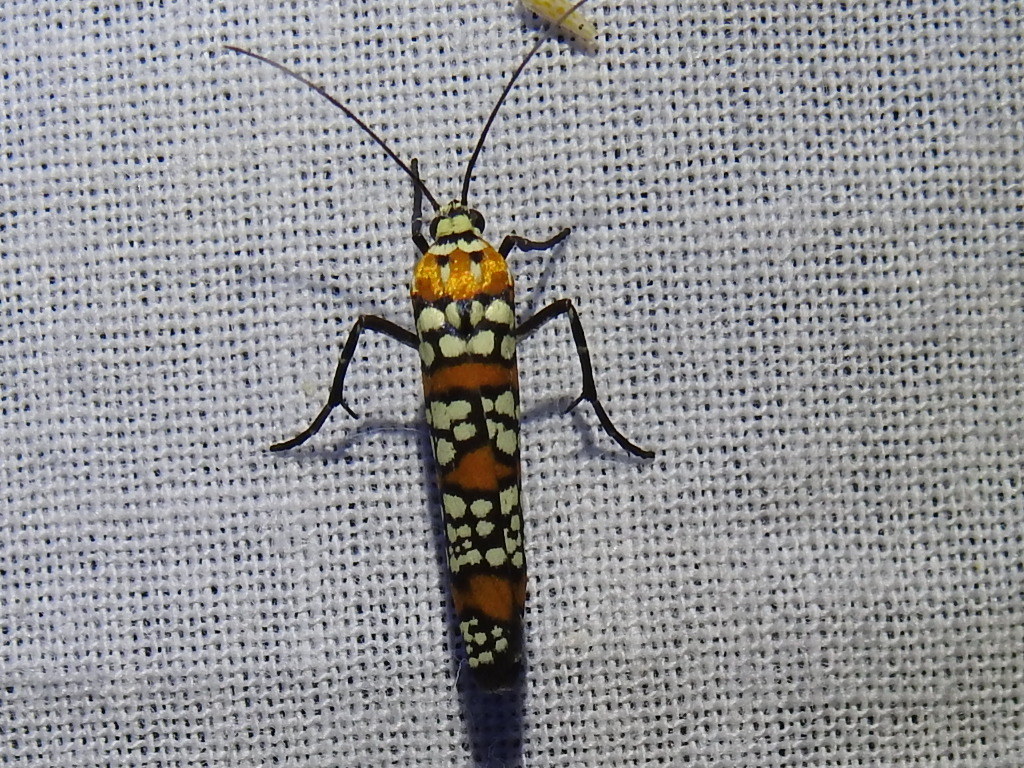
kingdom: Animalia
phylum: Arthropoda
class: Insecta
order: Lepidoptera
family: Attevidae
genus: Atteva
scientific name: Atteva punctella
